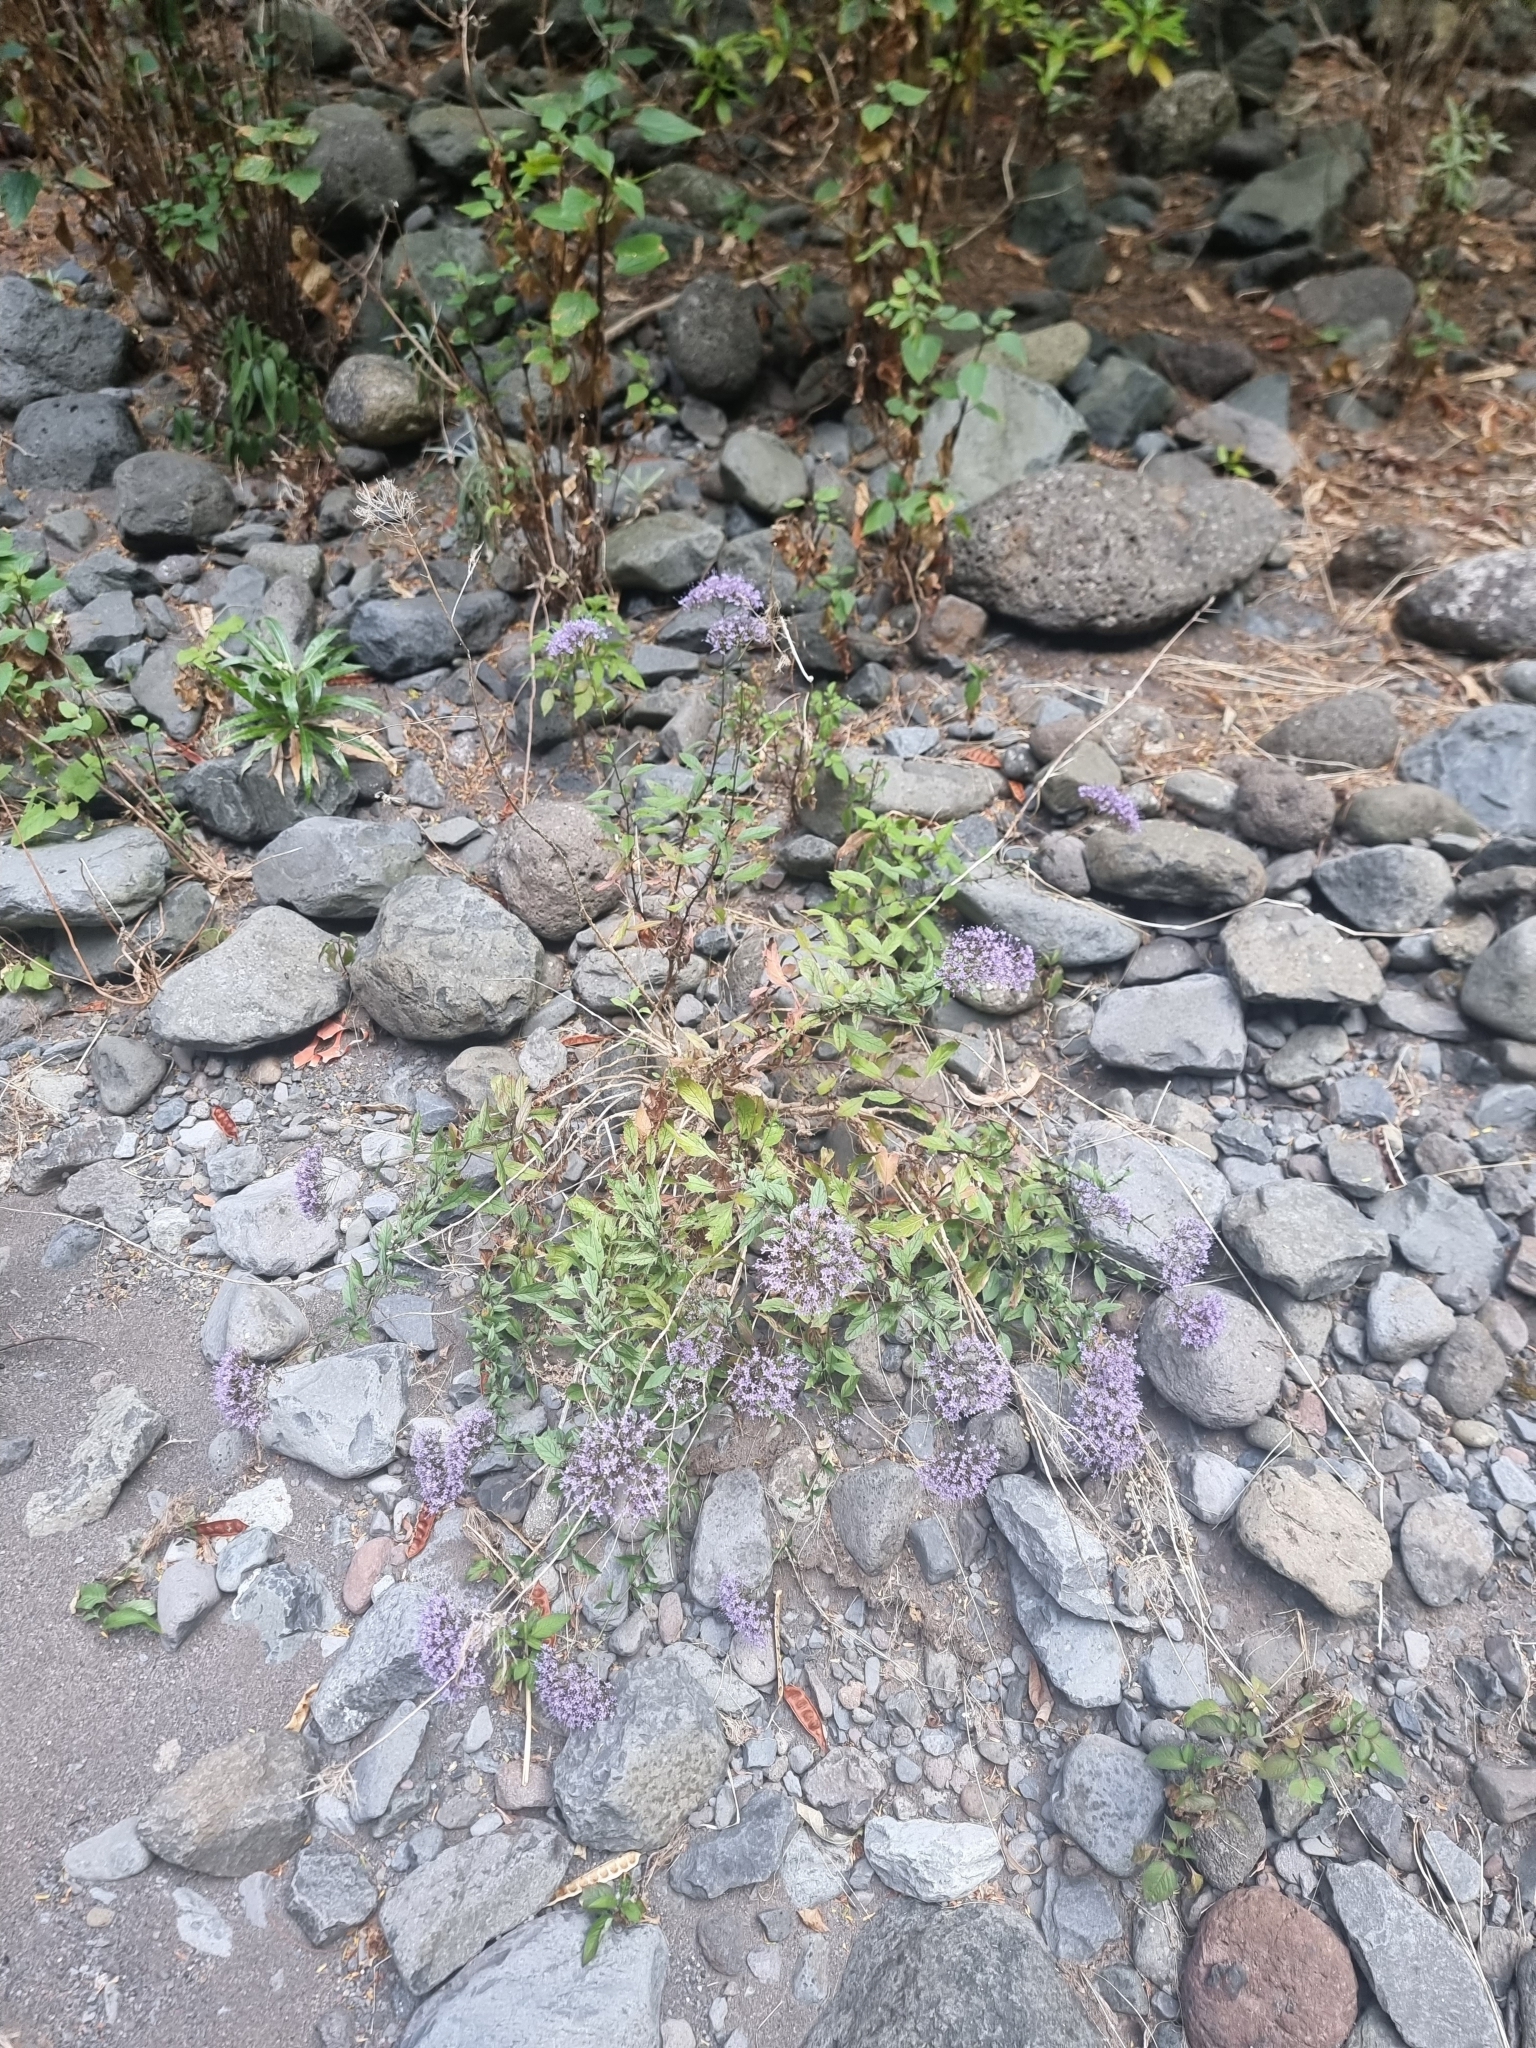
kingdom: Plantae
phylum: Tracheophyta
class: Magnoliopsida
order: Asterales
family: Campanulaceae
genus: Trachelium
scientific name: Trachelium caeruleum
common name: Throatwort
